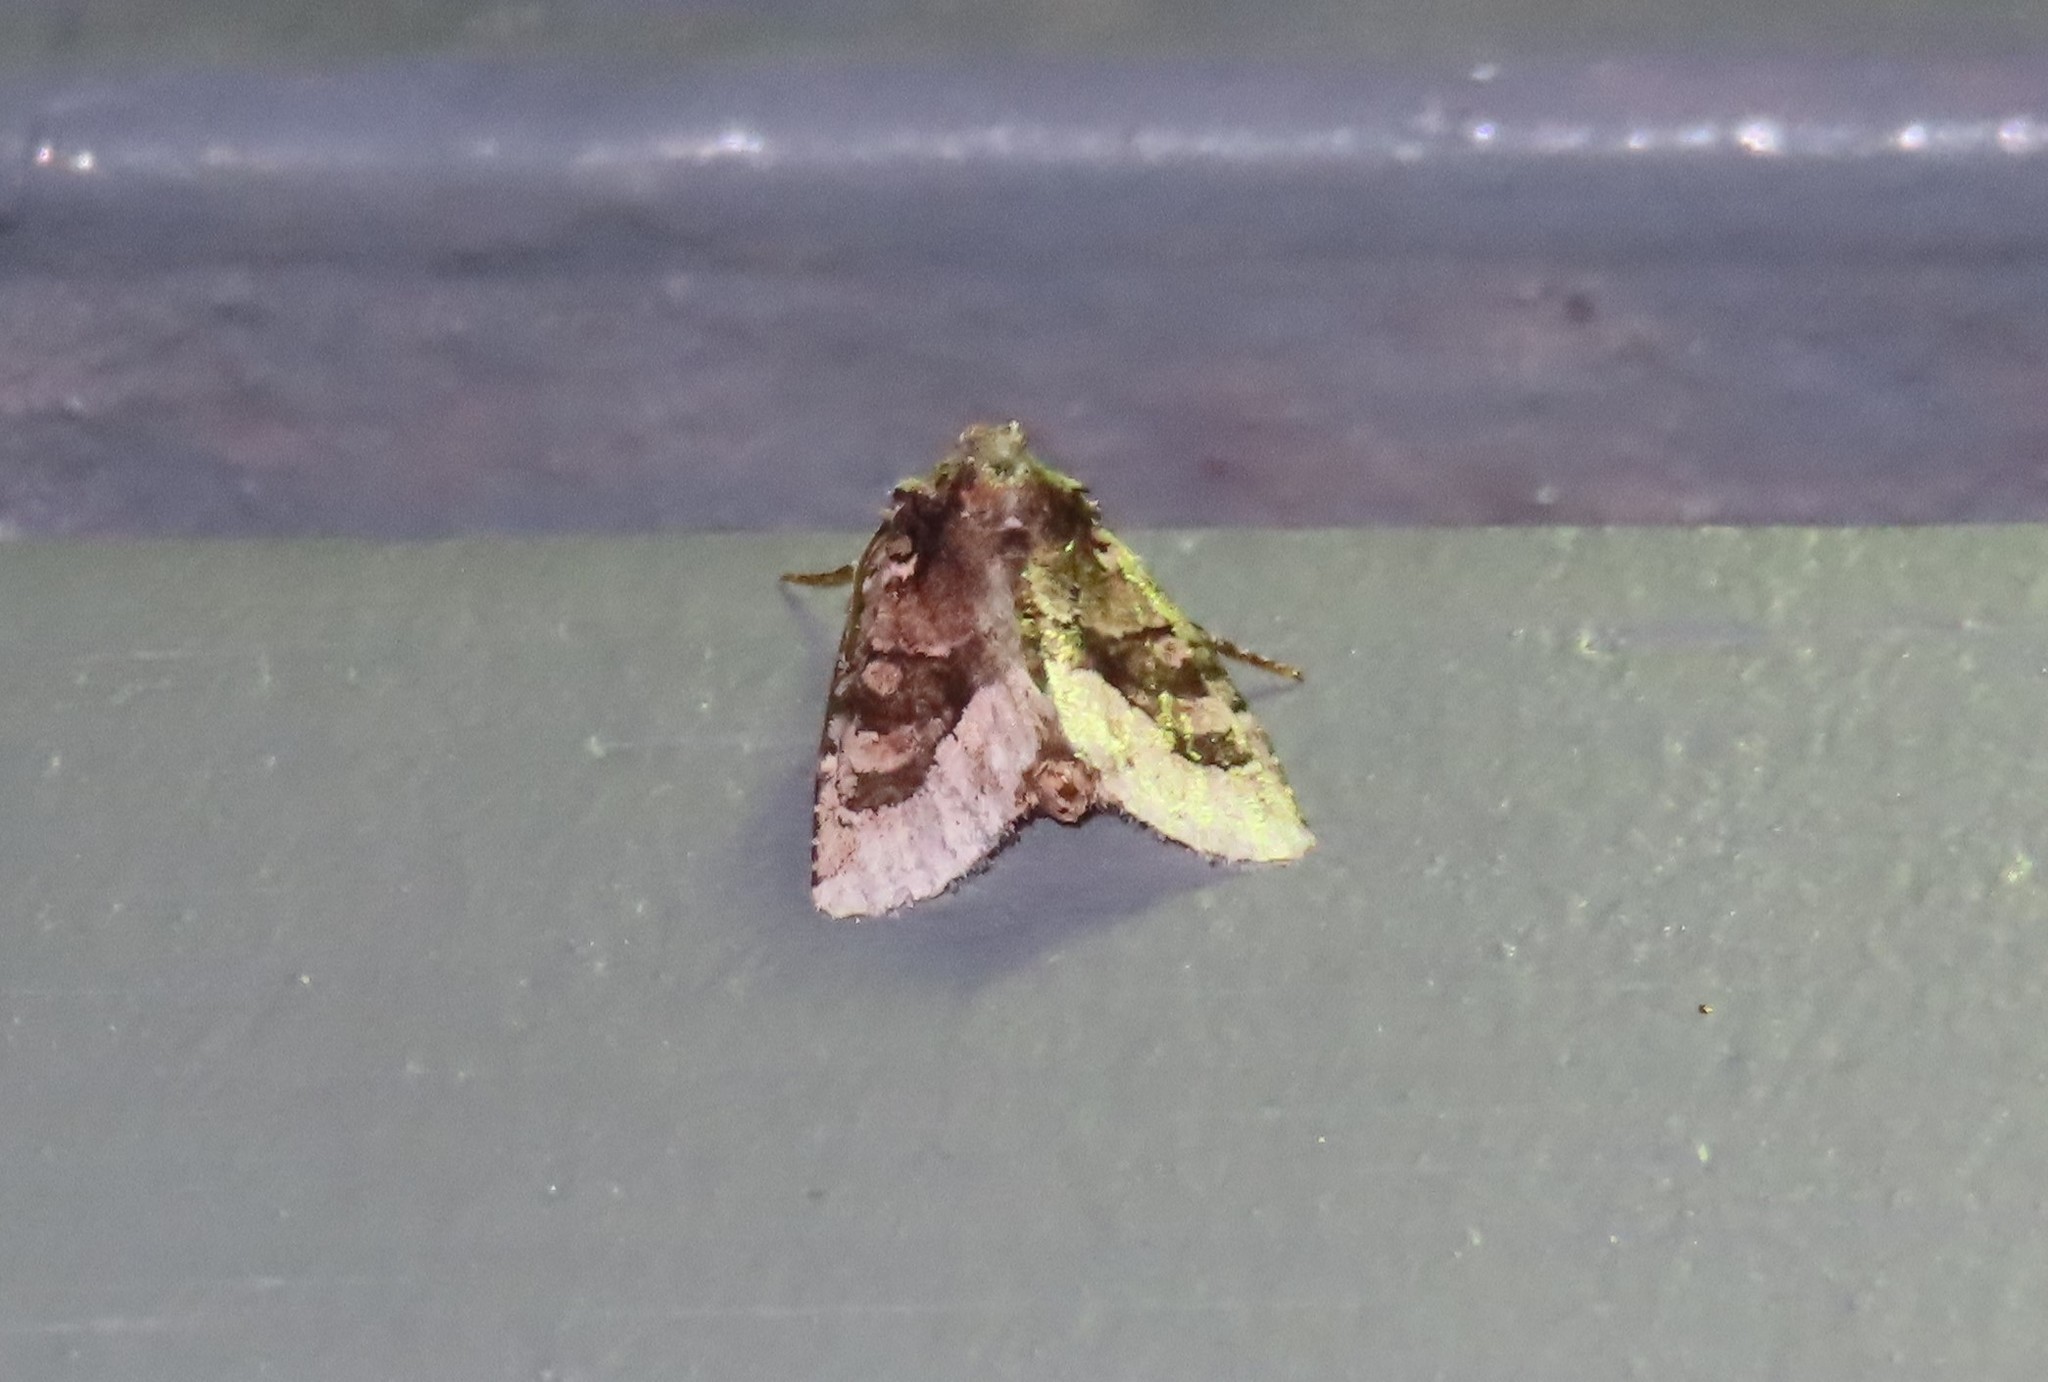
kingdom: Animalia
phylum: Arthropoda
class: Insecta
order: Lepidoptera
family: Noctuidae
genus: Lacinipolia
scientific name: Lacinipolia explicata
